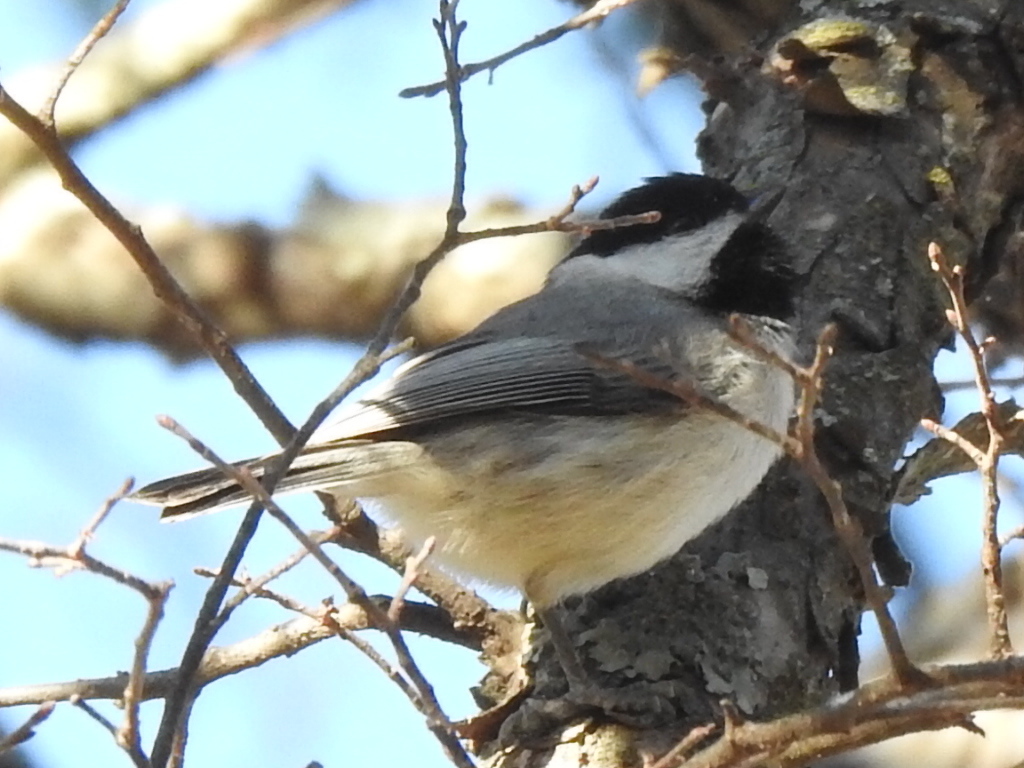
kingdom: Animalia
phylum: Chordata
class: Aves
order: Passeriformes
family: Paridae
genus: Poecile
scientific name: Poecile carolinensis
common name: Carolina chickadee
